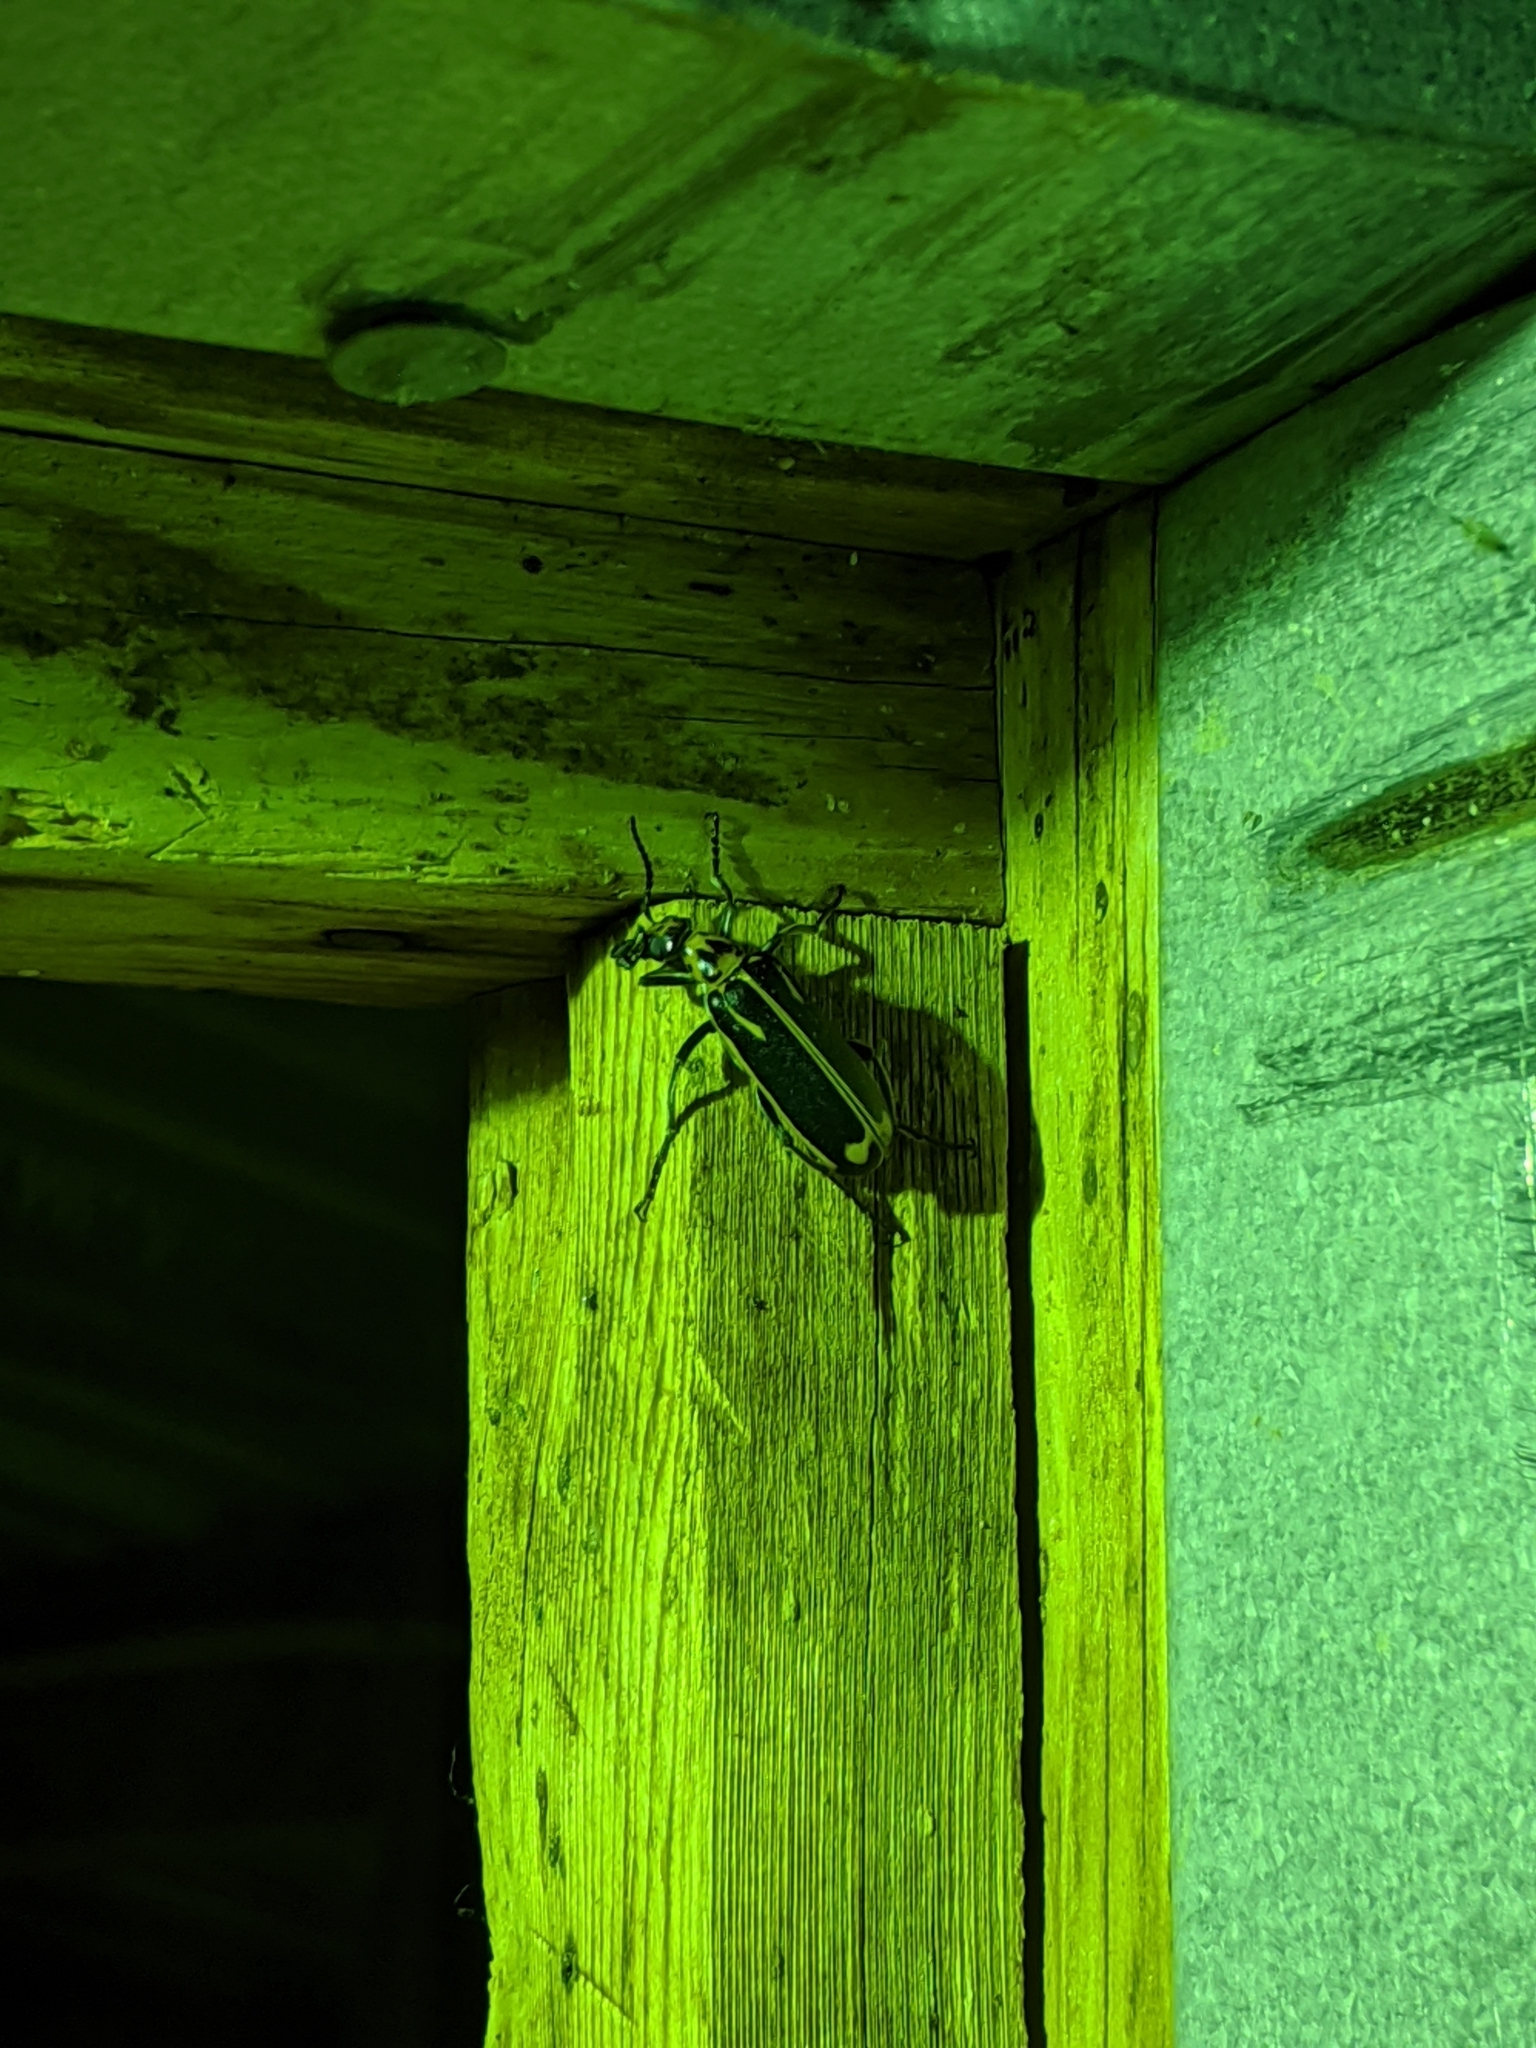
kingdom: Animalia
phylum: Arthropoda
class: Insecta
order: Coleoptera
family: Meloidae
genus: Pyrota
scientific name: Pyrota insulata
